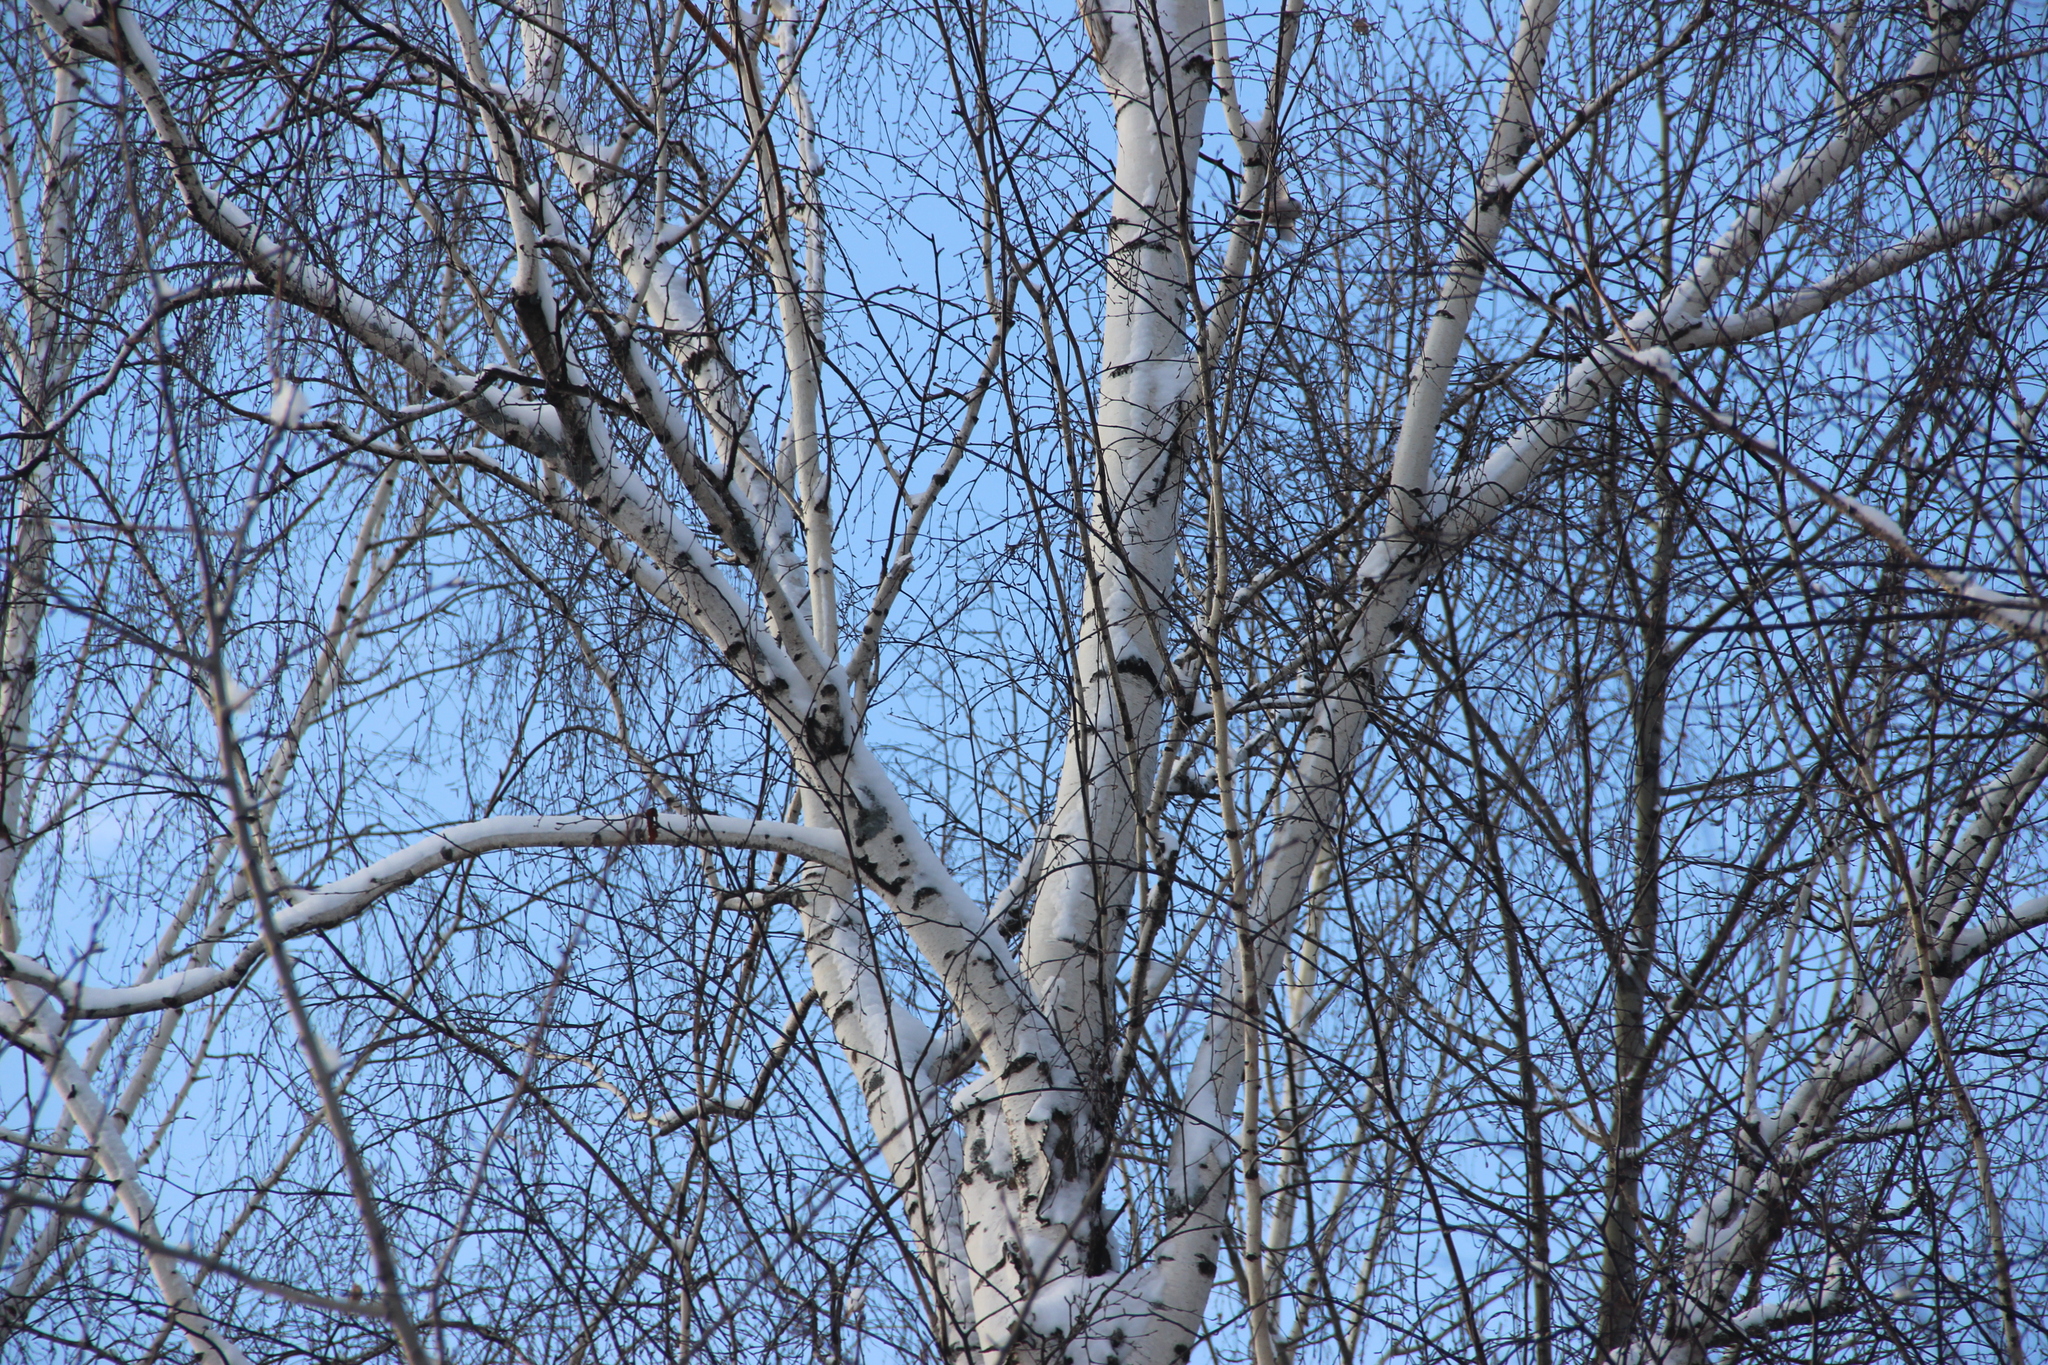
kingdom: Animalia
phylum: Chordata
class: Aves
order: Passeriformes
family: Aegithalidae
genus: Aegithalos
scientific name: Aegithalos caudatus
